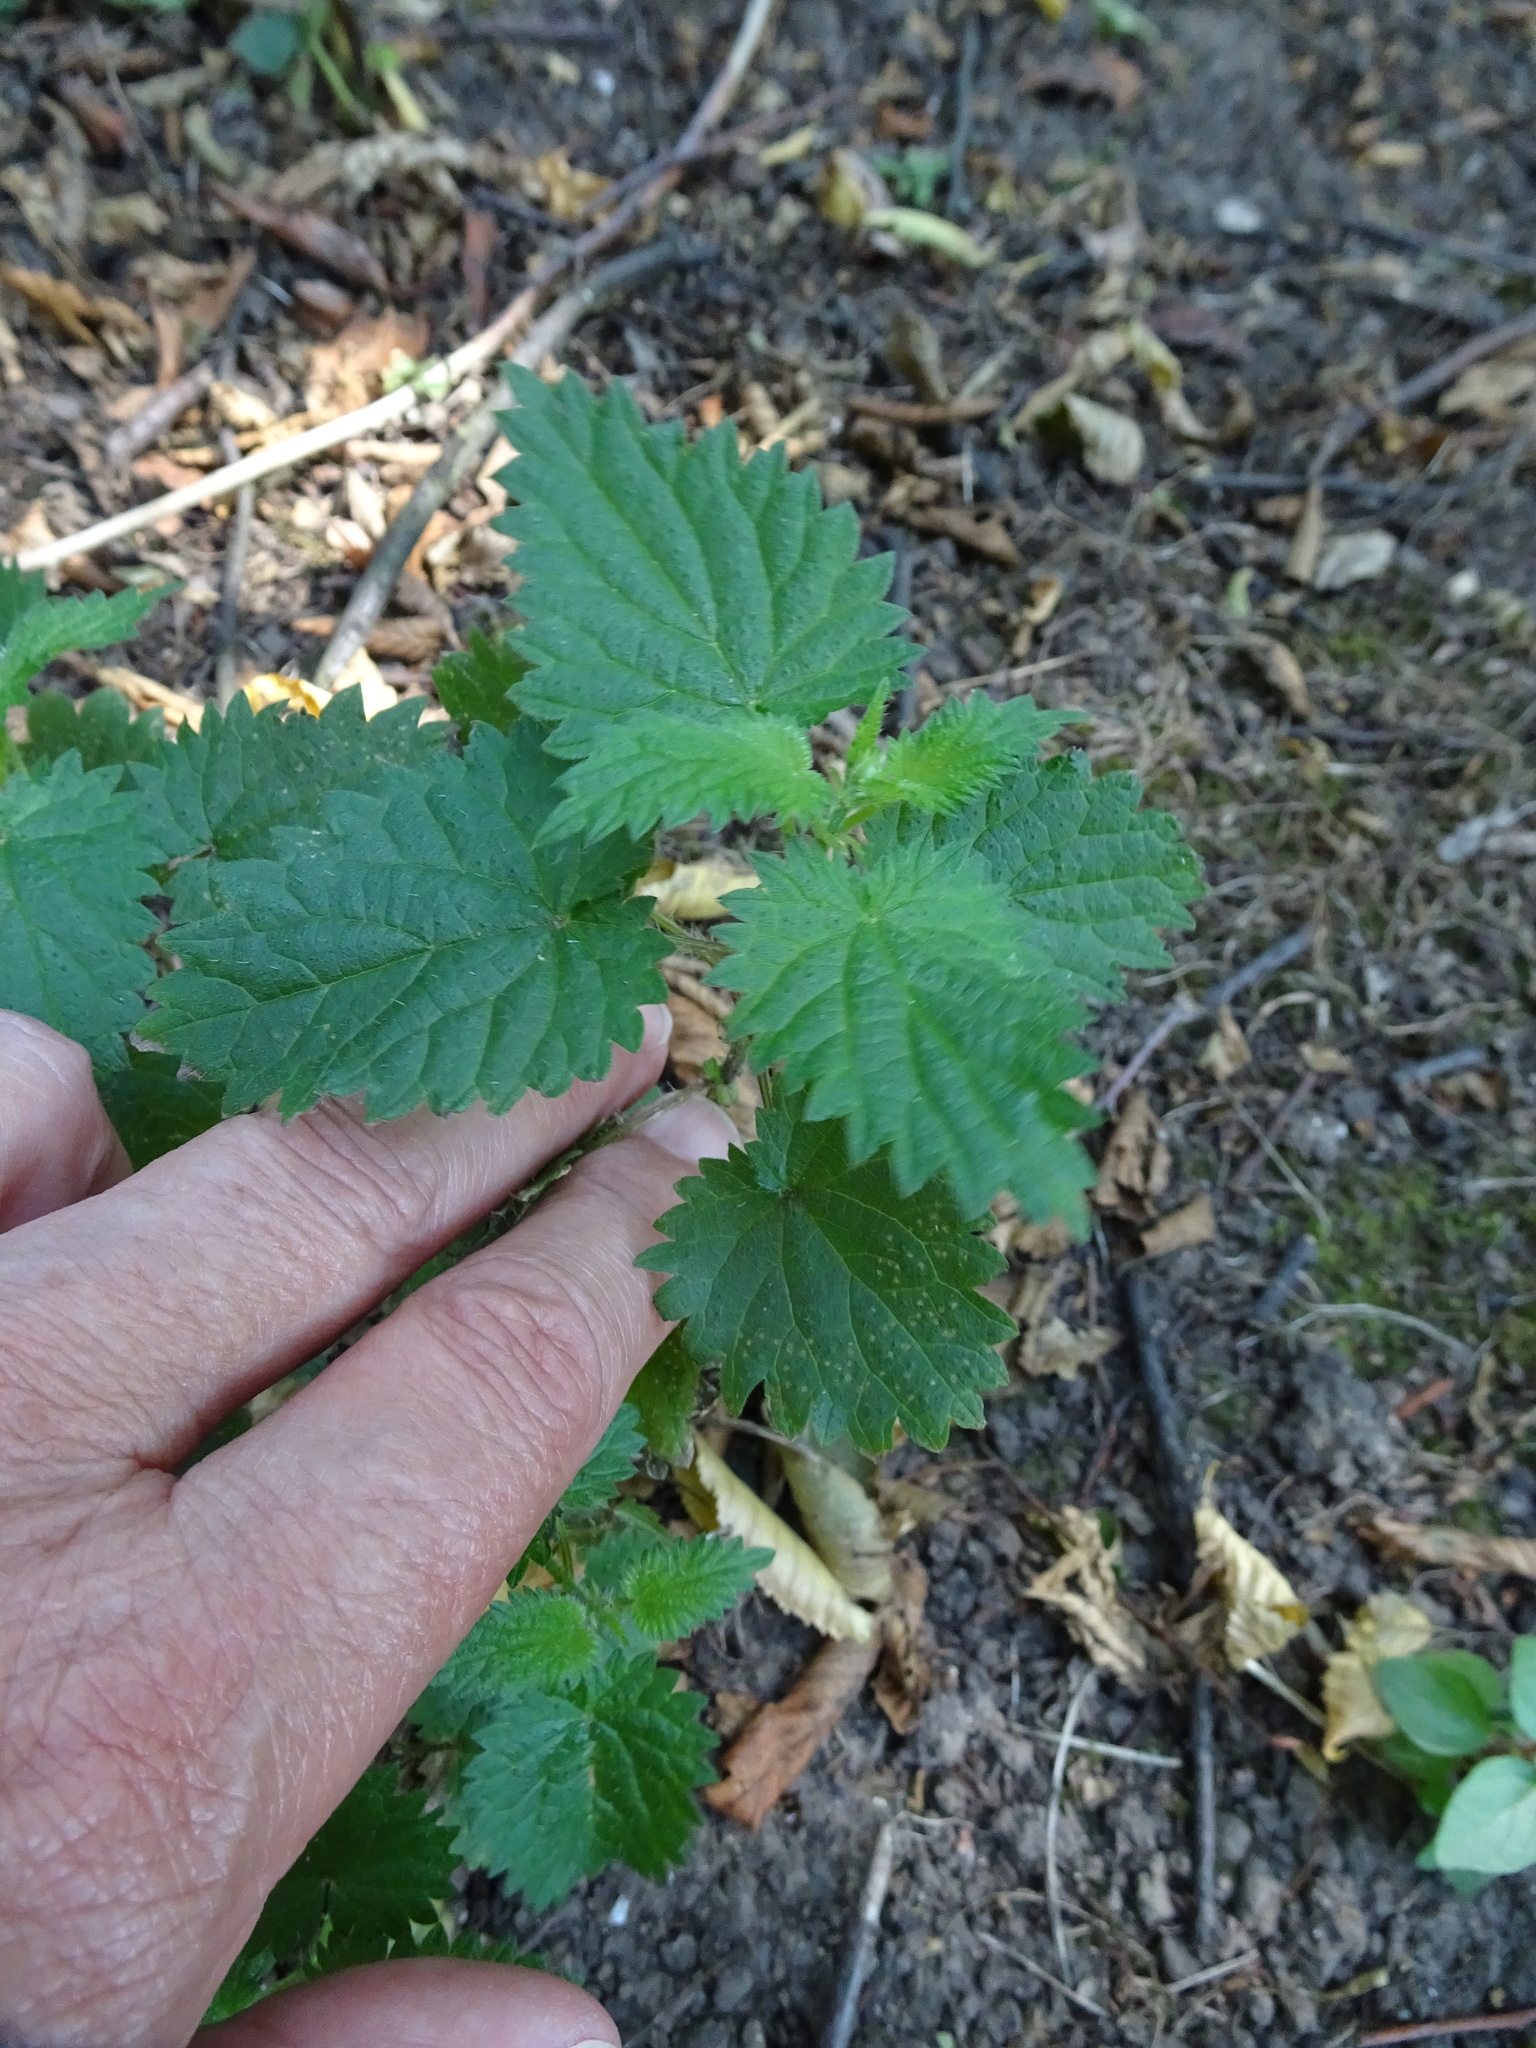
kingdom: Plantae
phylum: Tracheophyta
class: Magnoliopsida
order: Rosales
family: Urticaceae
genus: Urtica
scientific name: Urtica dioica
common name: Common nettle
